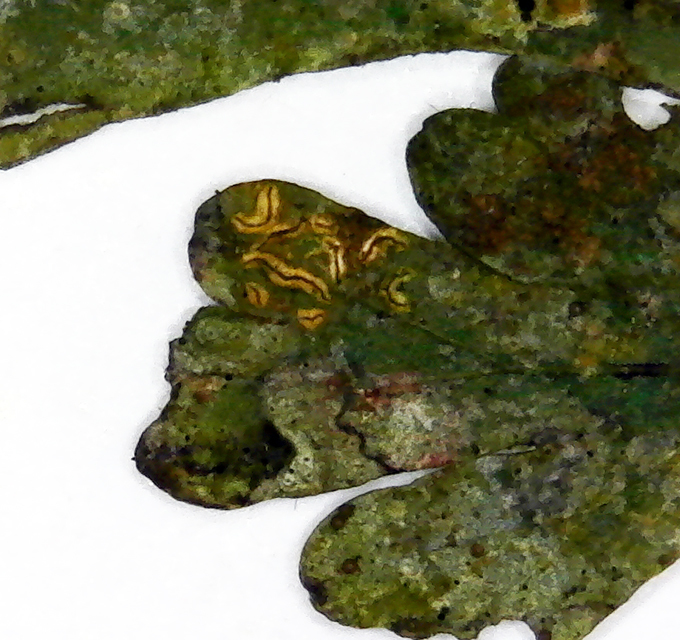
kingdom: Fungi
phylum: Ascomycota
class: Arthoniomycetes
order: Arthoniales
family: Roccellaceae
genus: Enterographa
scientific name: Enterographa bella
